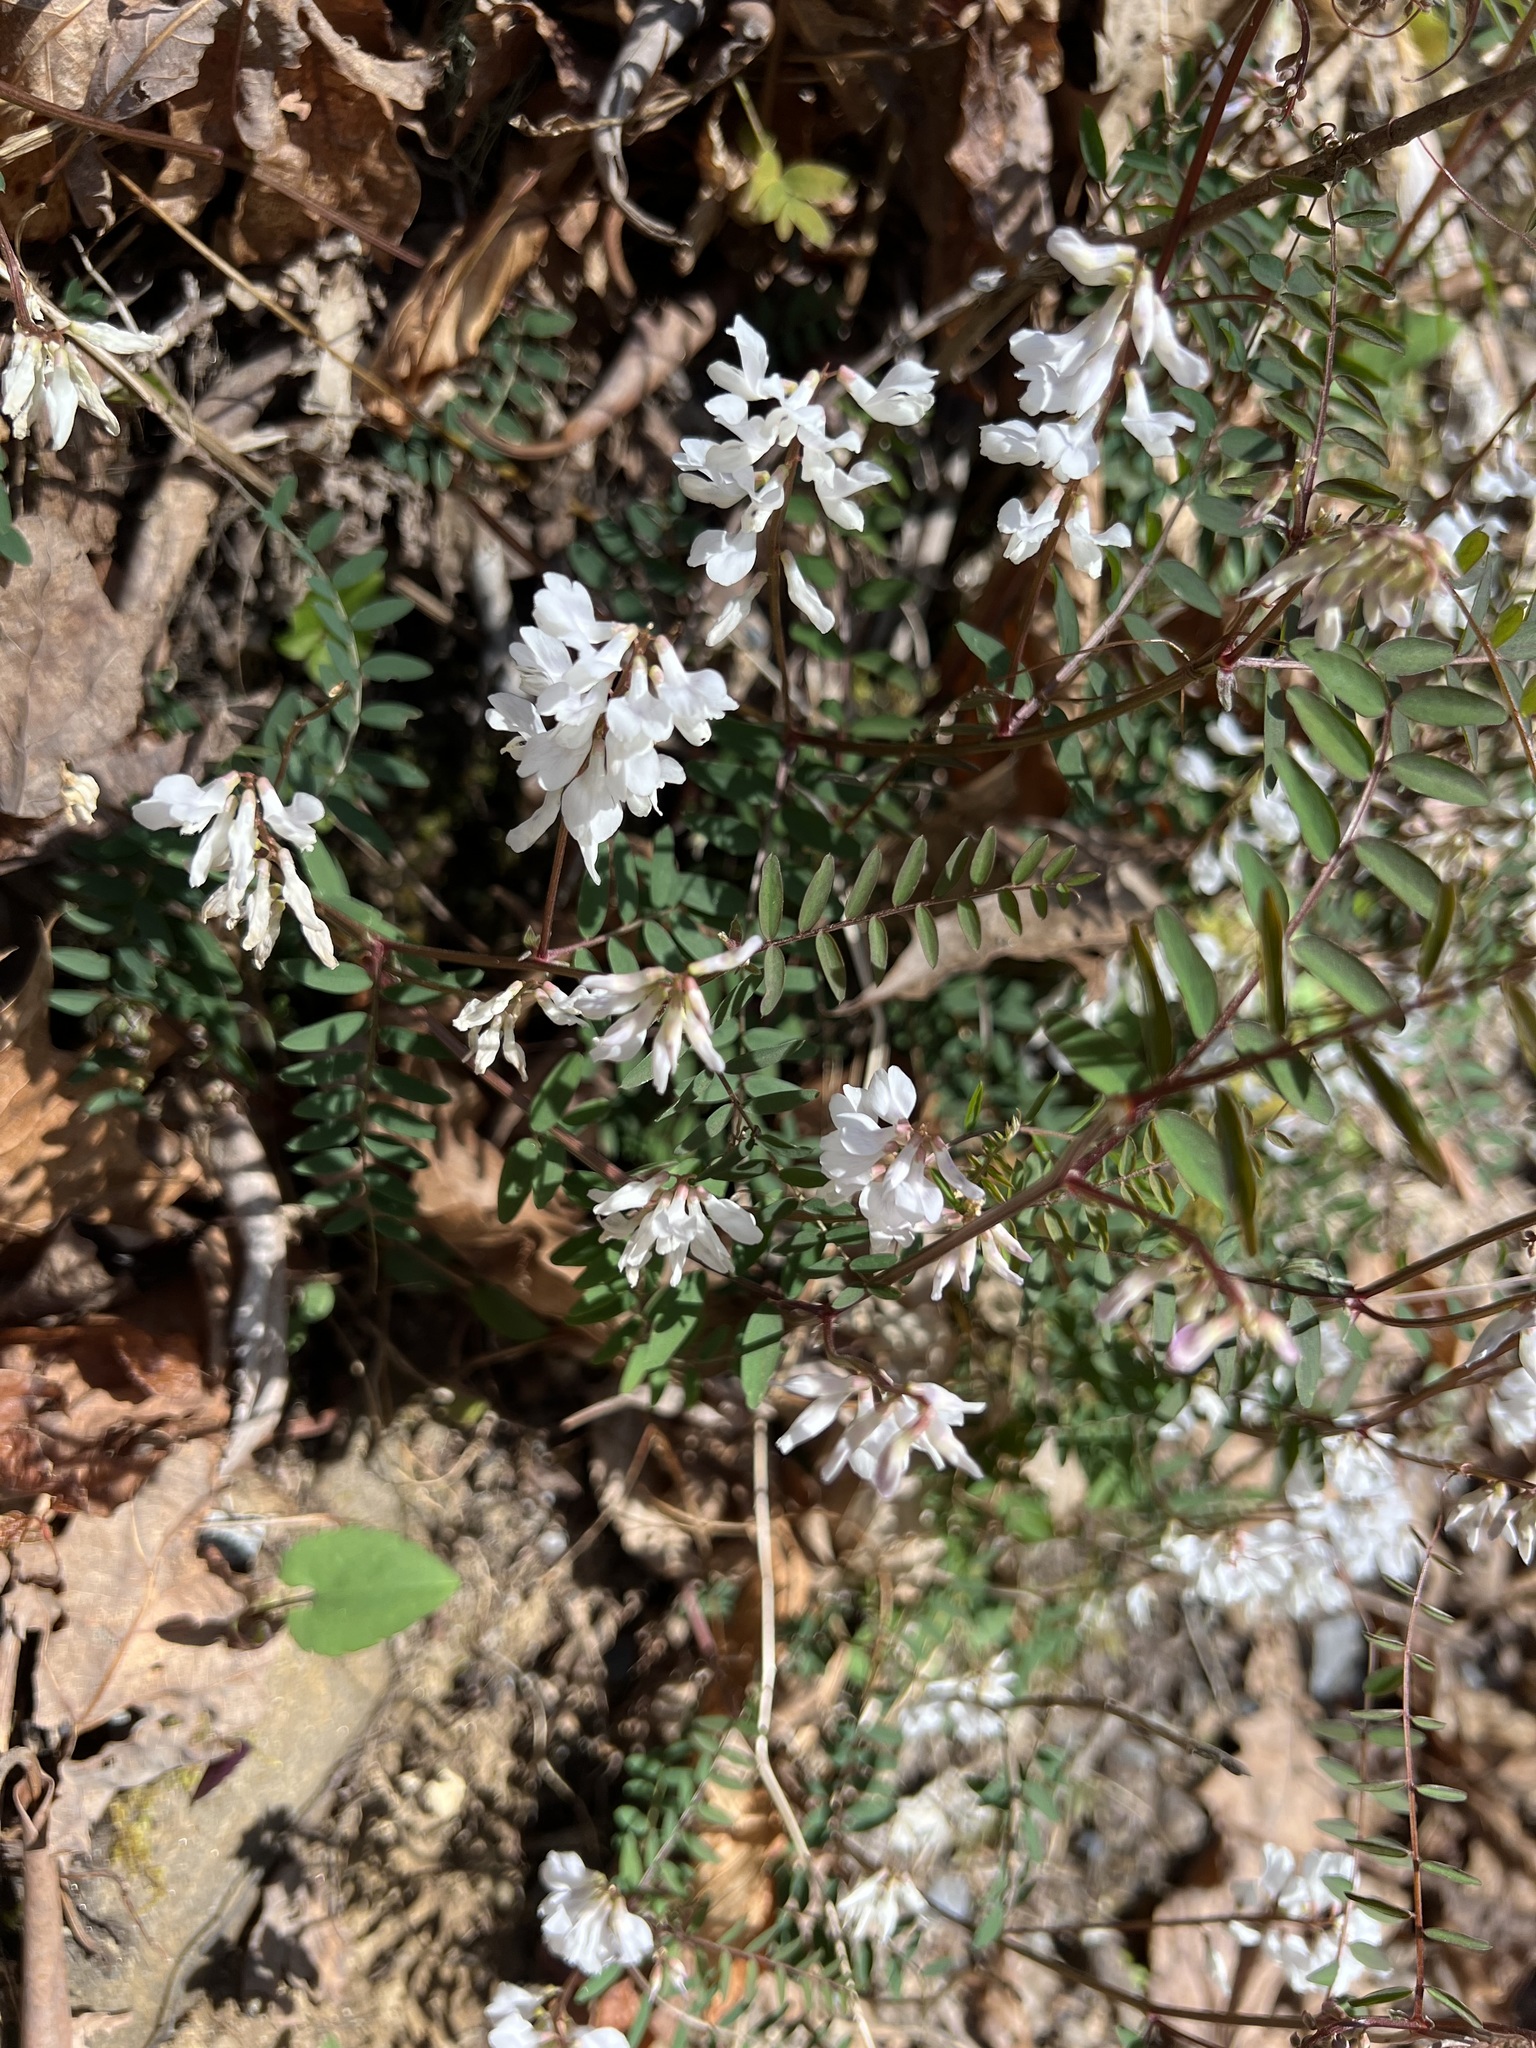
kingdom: Plantae
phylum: Tracheophyta
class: Magnoliopsida
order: Fabales
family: Fabaceae
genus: Vicia
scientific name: Vicia caroliniana
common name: Carolina vetch
